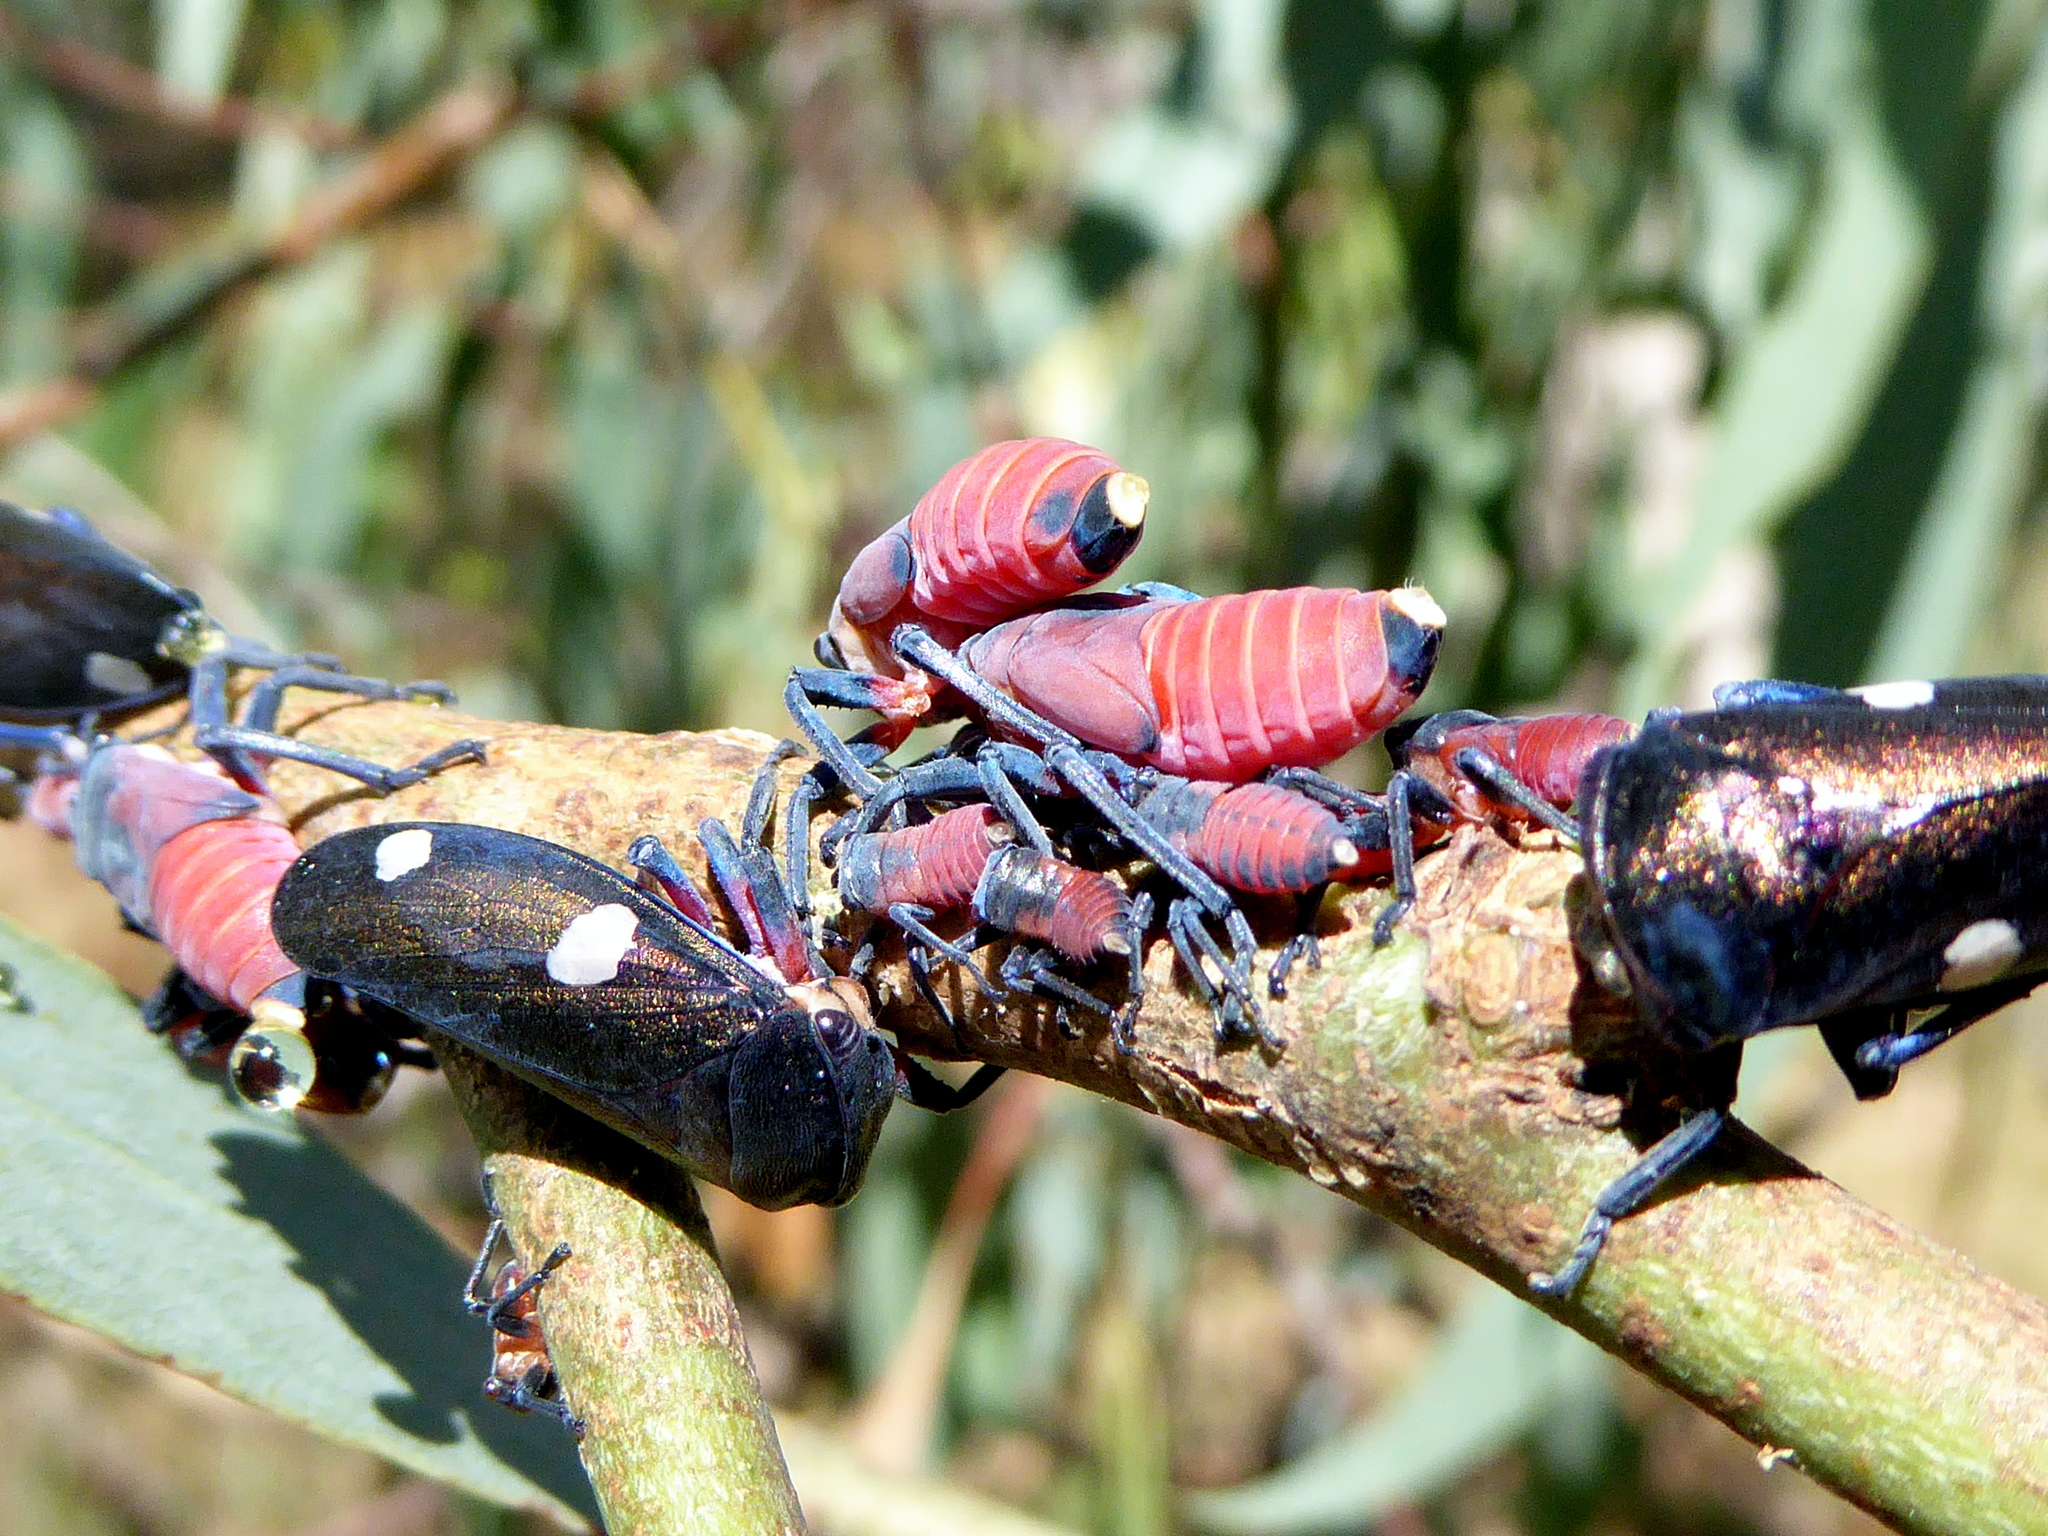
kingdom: Animalia
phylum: Arthropoda
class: Insecta
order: Hemiptera
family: Cicadellidae
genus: Eurymela
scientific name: Eurymela distincta
